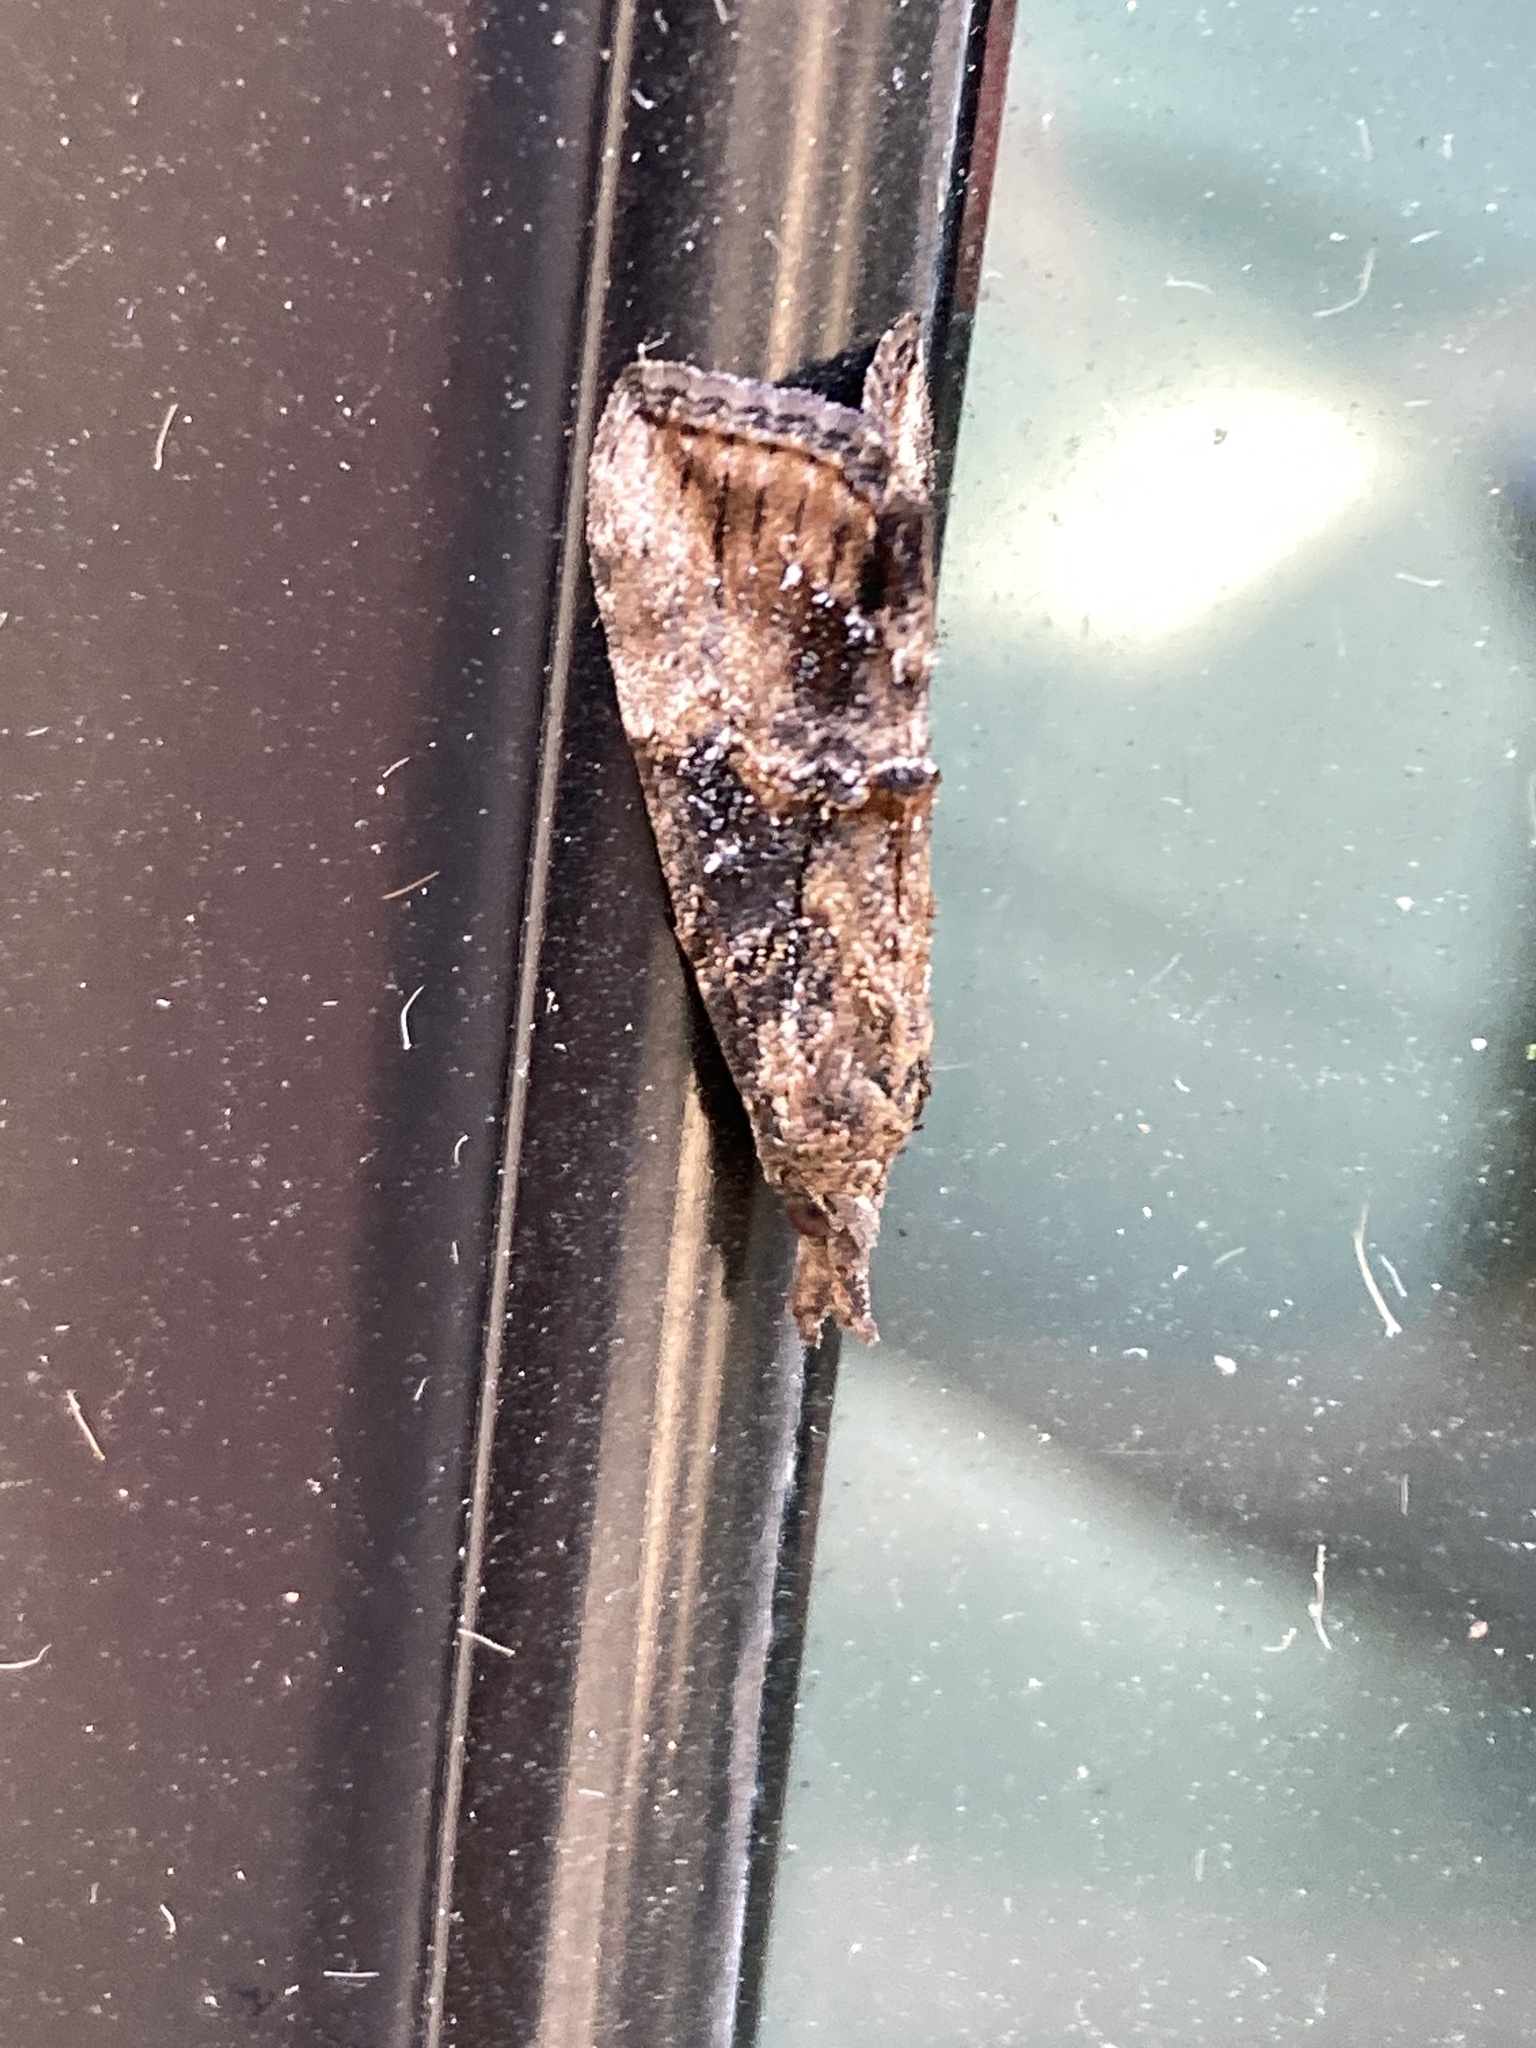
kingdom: Animalia
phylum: Arthropoda
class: Insecta
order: Lepidoptera
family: Erebidae
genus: Hypena
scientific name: Hypena scabra
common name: Green cloverworm
